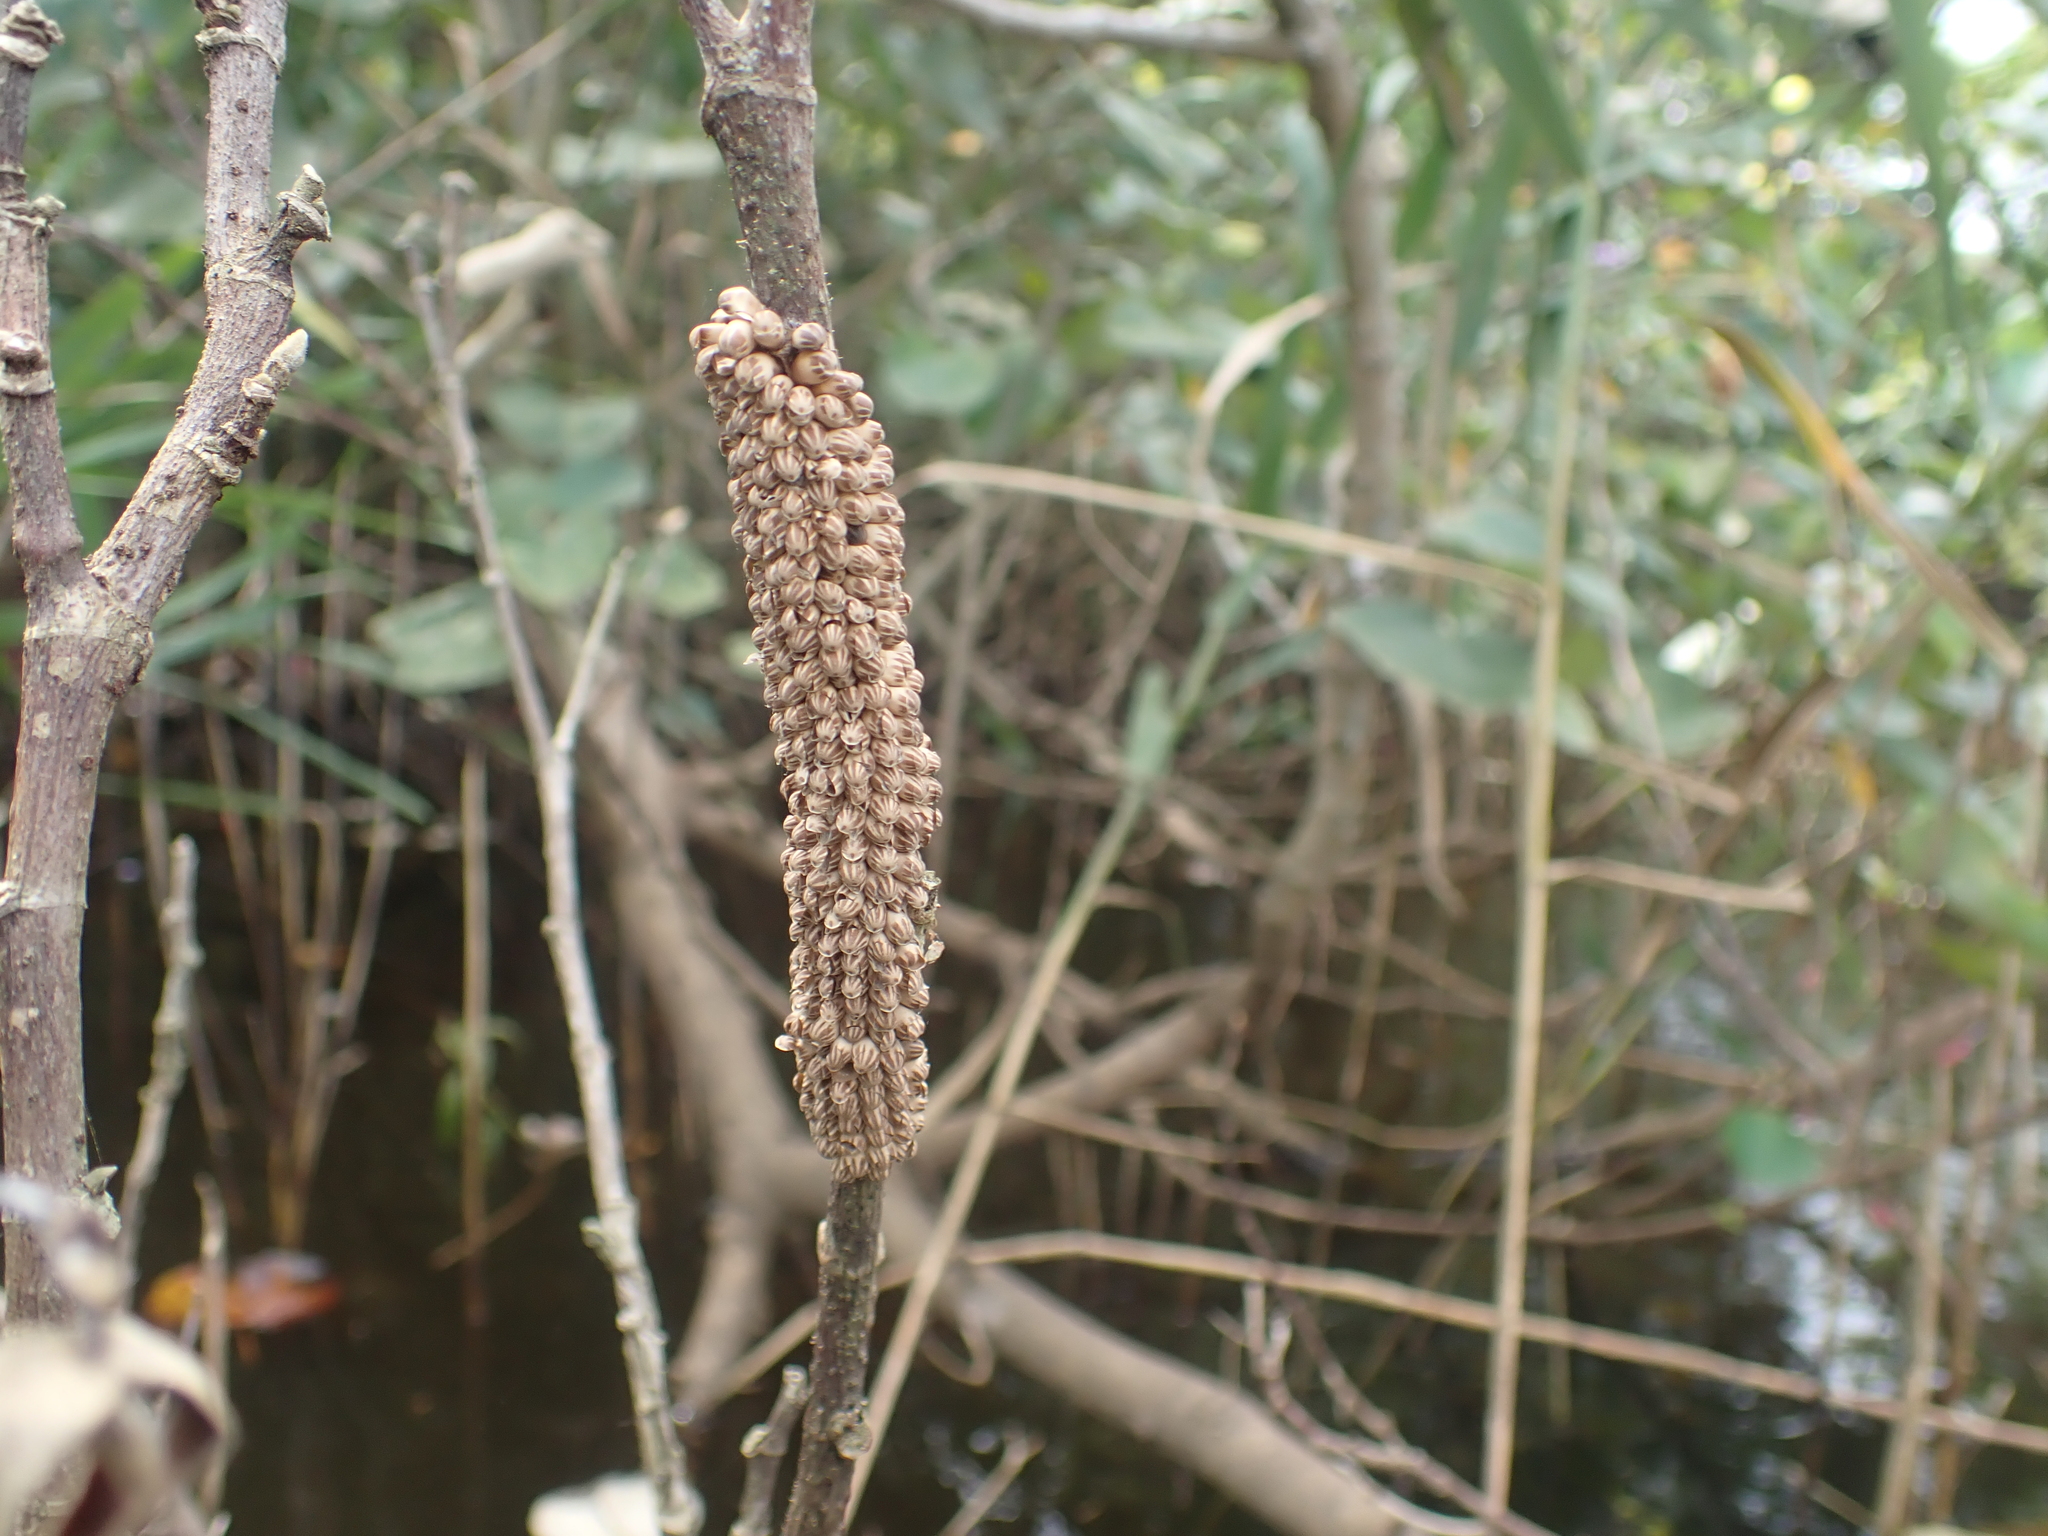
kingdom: Animalia
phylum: Arthropoda
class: Insecta
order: Hemiptera
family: Belostomatidae
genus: Lethocerus
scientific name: Lethocerus indicus
